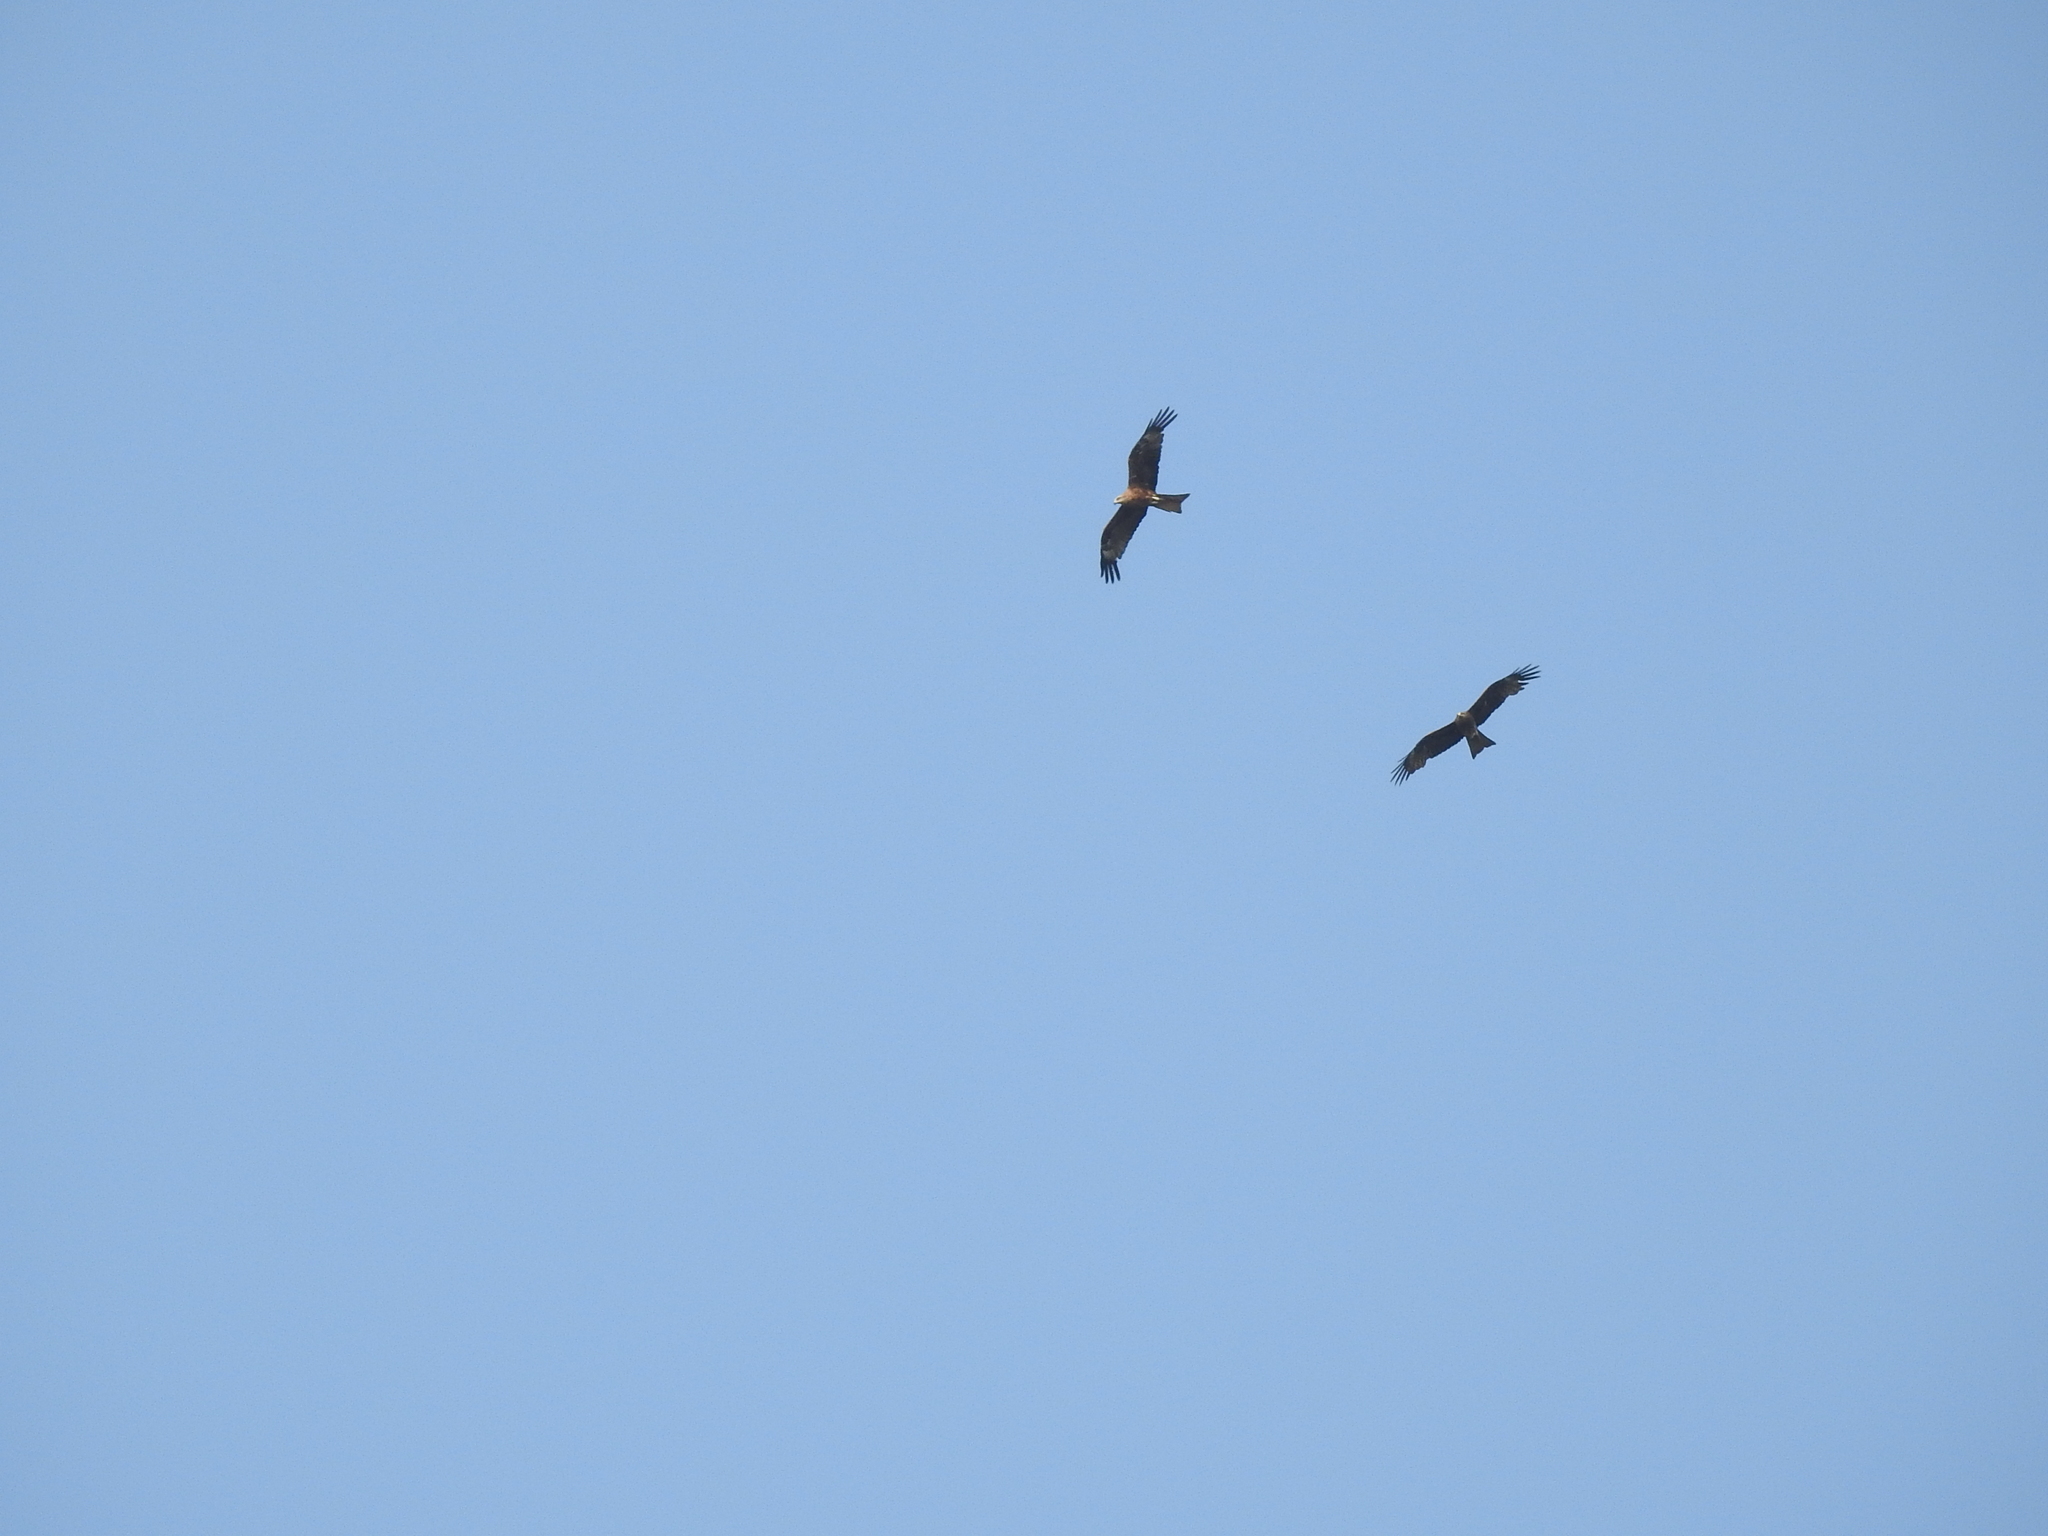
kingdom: Animalia
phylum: Chordata
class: Aves
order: Accipitriformes
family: Accipitridae
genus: Milvus
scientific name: Milvus migrans
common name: Black kite
